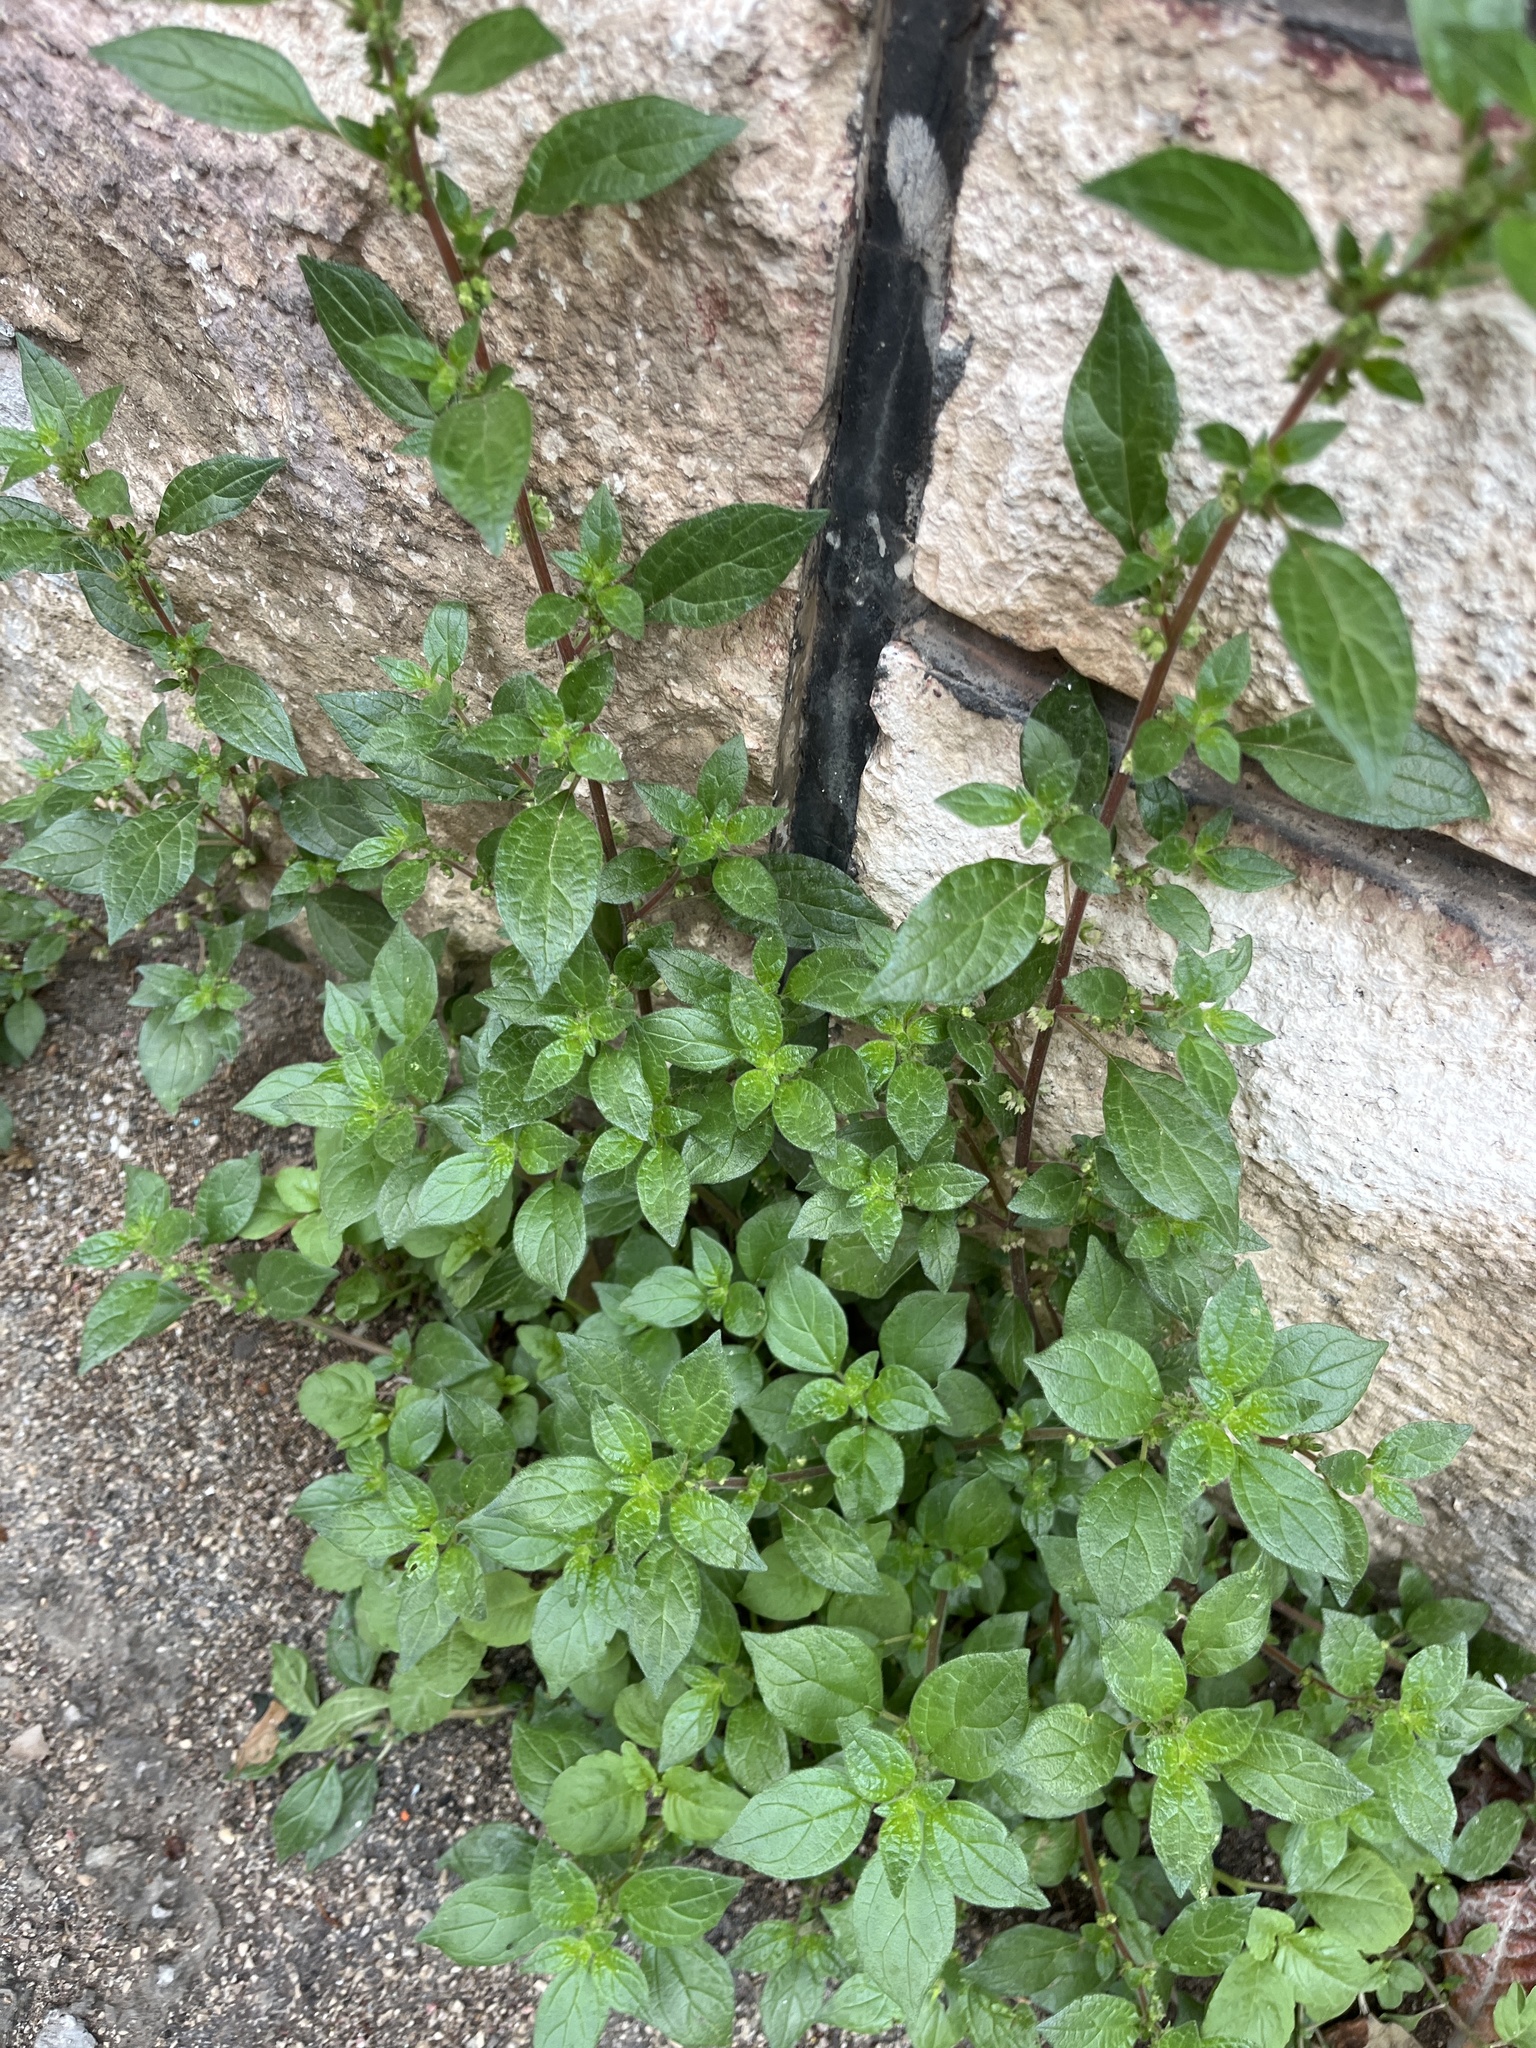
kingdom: Plantae
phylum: Tracheophyta
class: Magnoliopsida
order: Rosales
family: Urticaceae
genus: Parietaria
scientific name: Parietaria judaica
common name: Pellitory-of-the-wall
